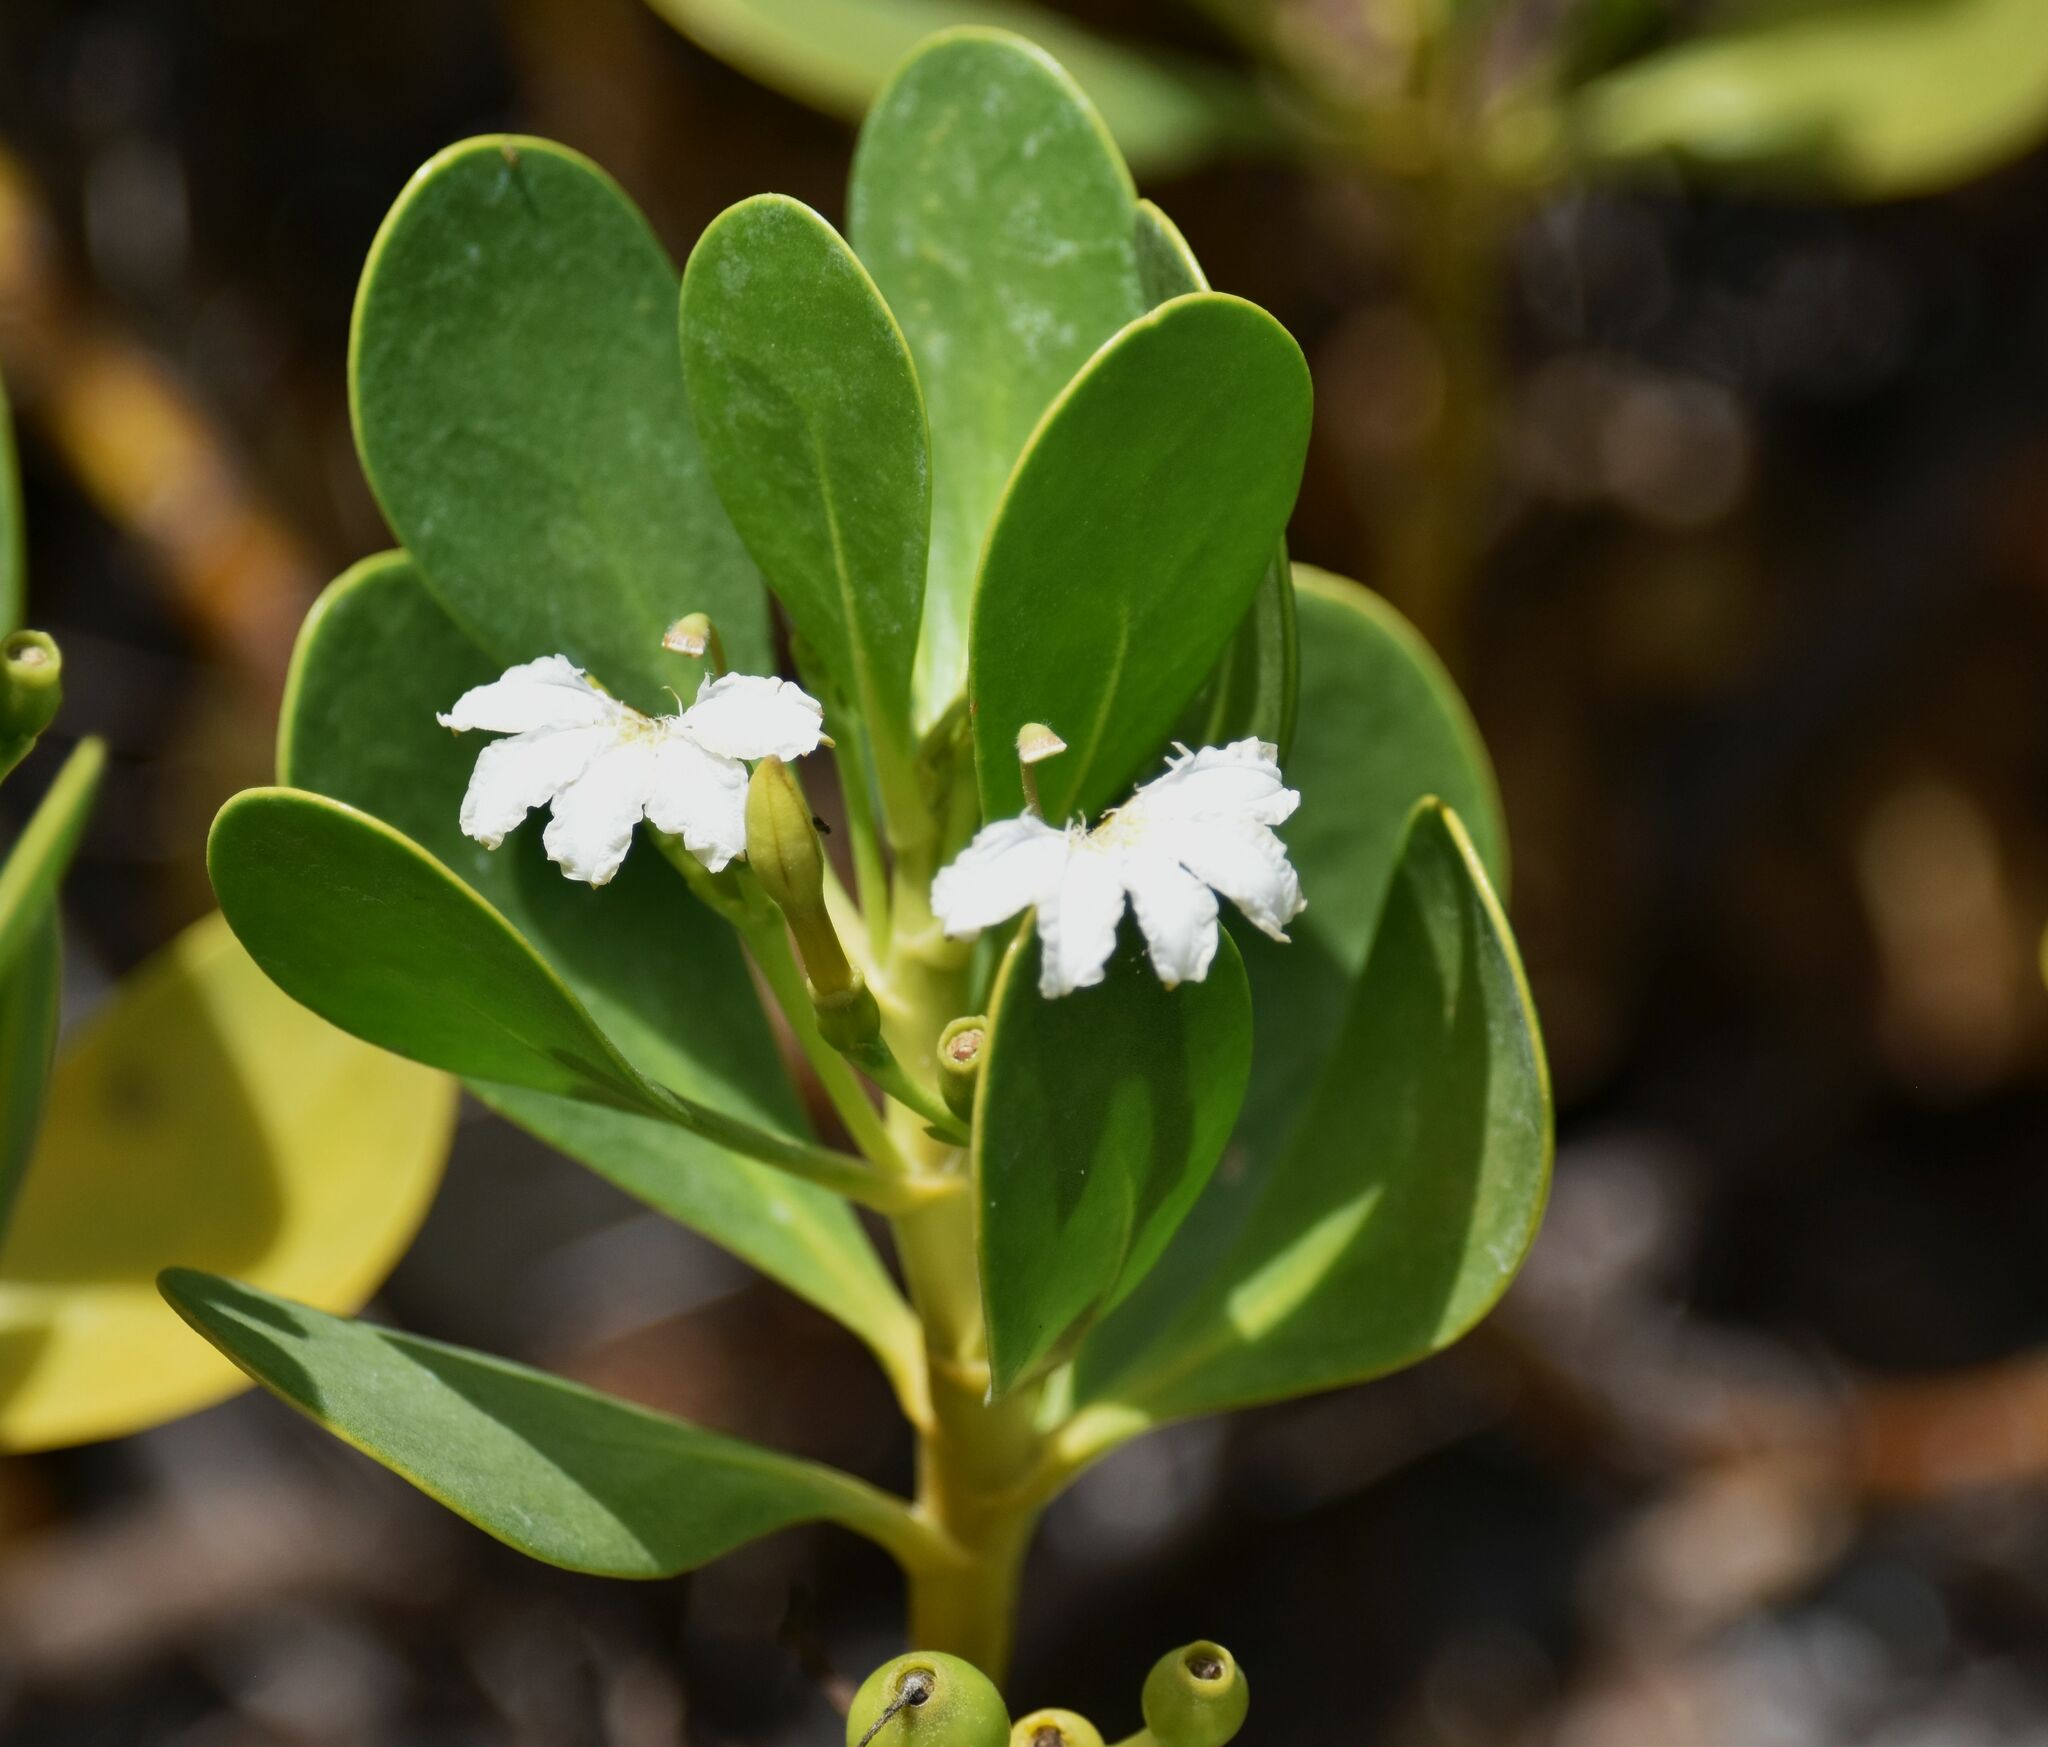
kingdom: Plantae
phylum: Tracheophyta
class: Magnoliopsida
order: Asterales
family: Goodeniaceae
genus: Scaevola
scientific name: Scaevola plumieri
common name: Gull feed
